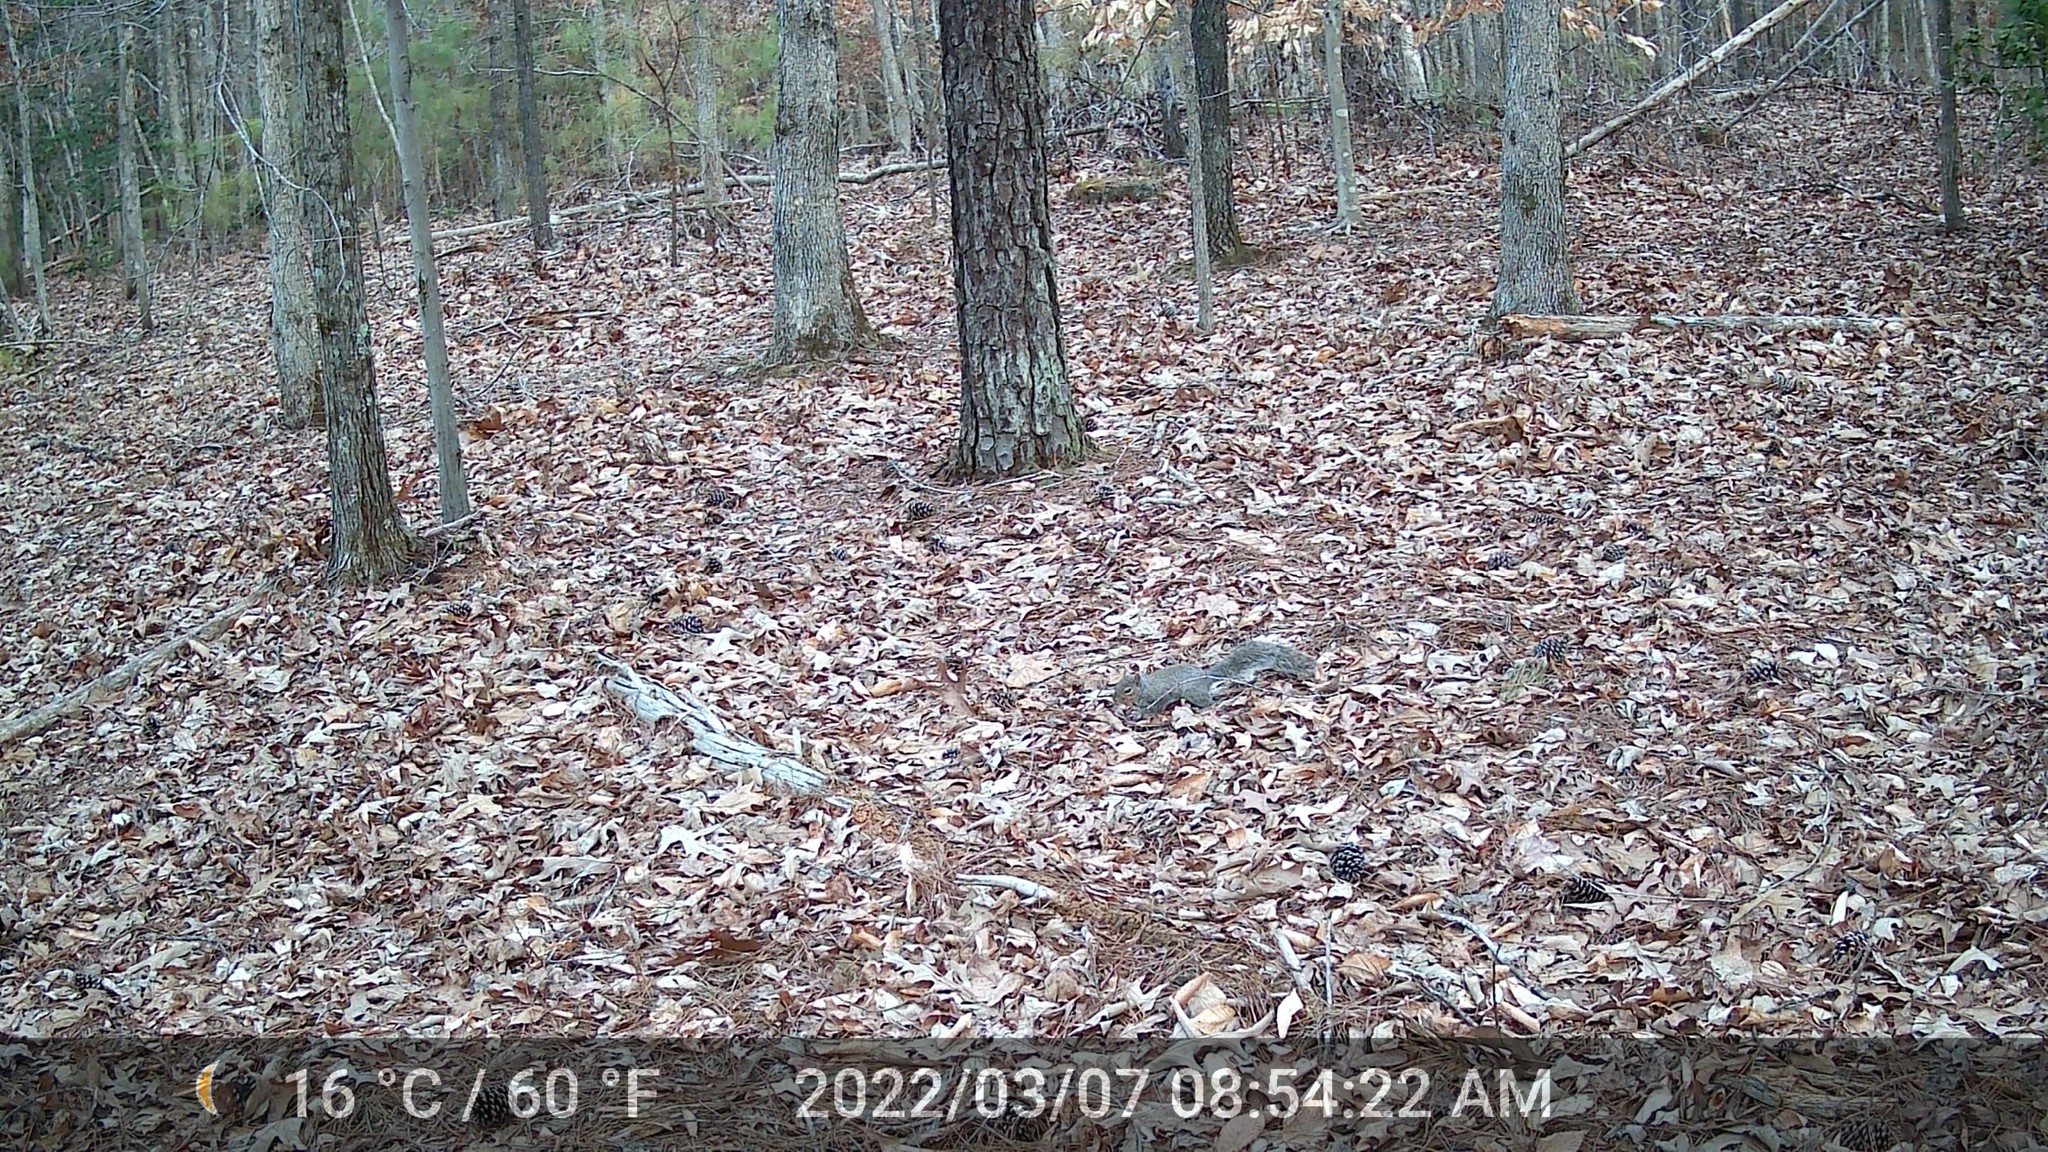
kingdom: Animalia
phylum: Chordata
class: Mammalia
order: Rodentia
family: Sciuridae
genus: Sciurus
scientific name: Sciurus carolinensis
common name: Eastern gray squirrel
